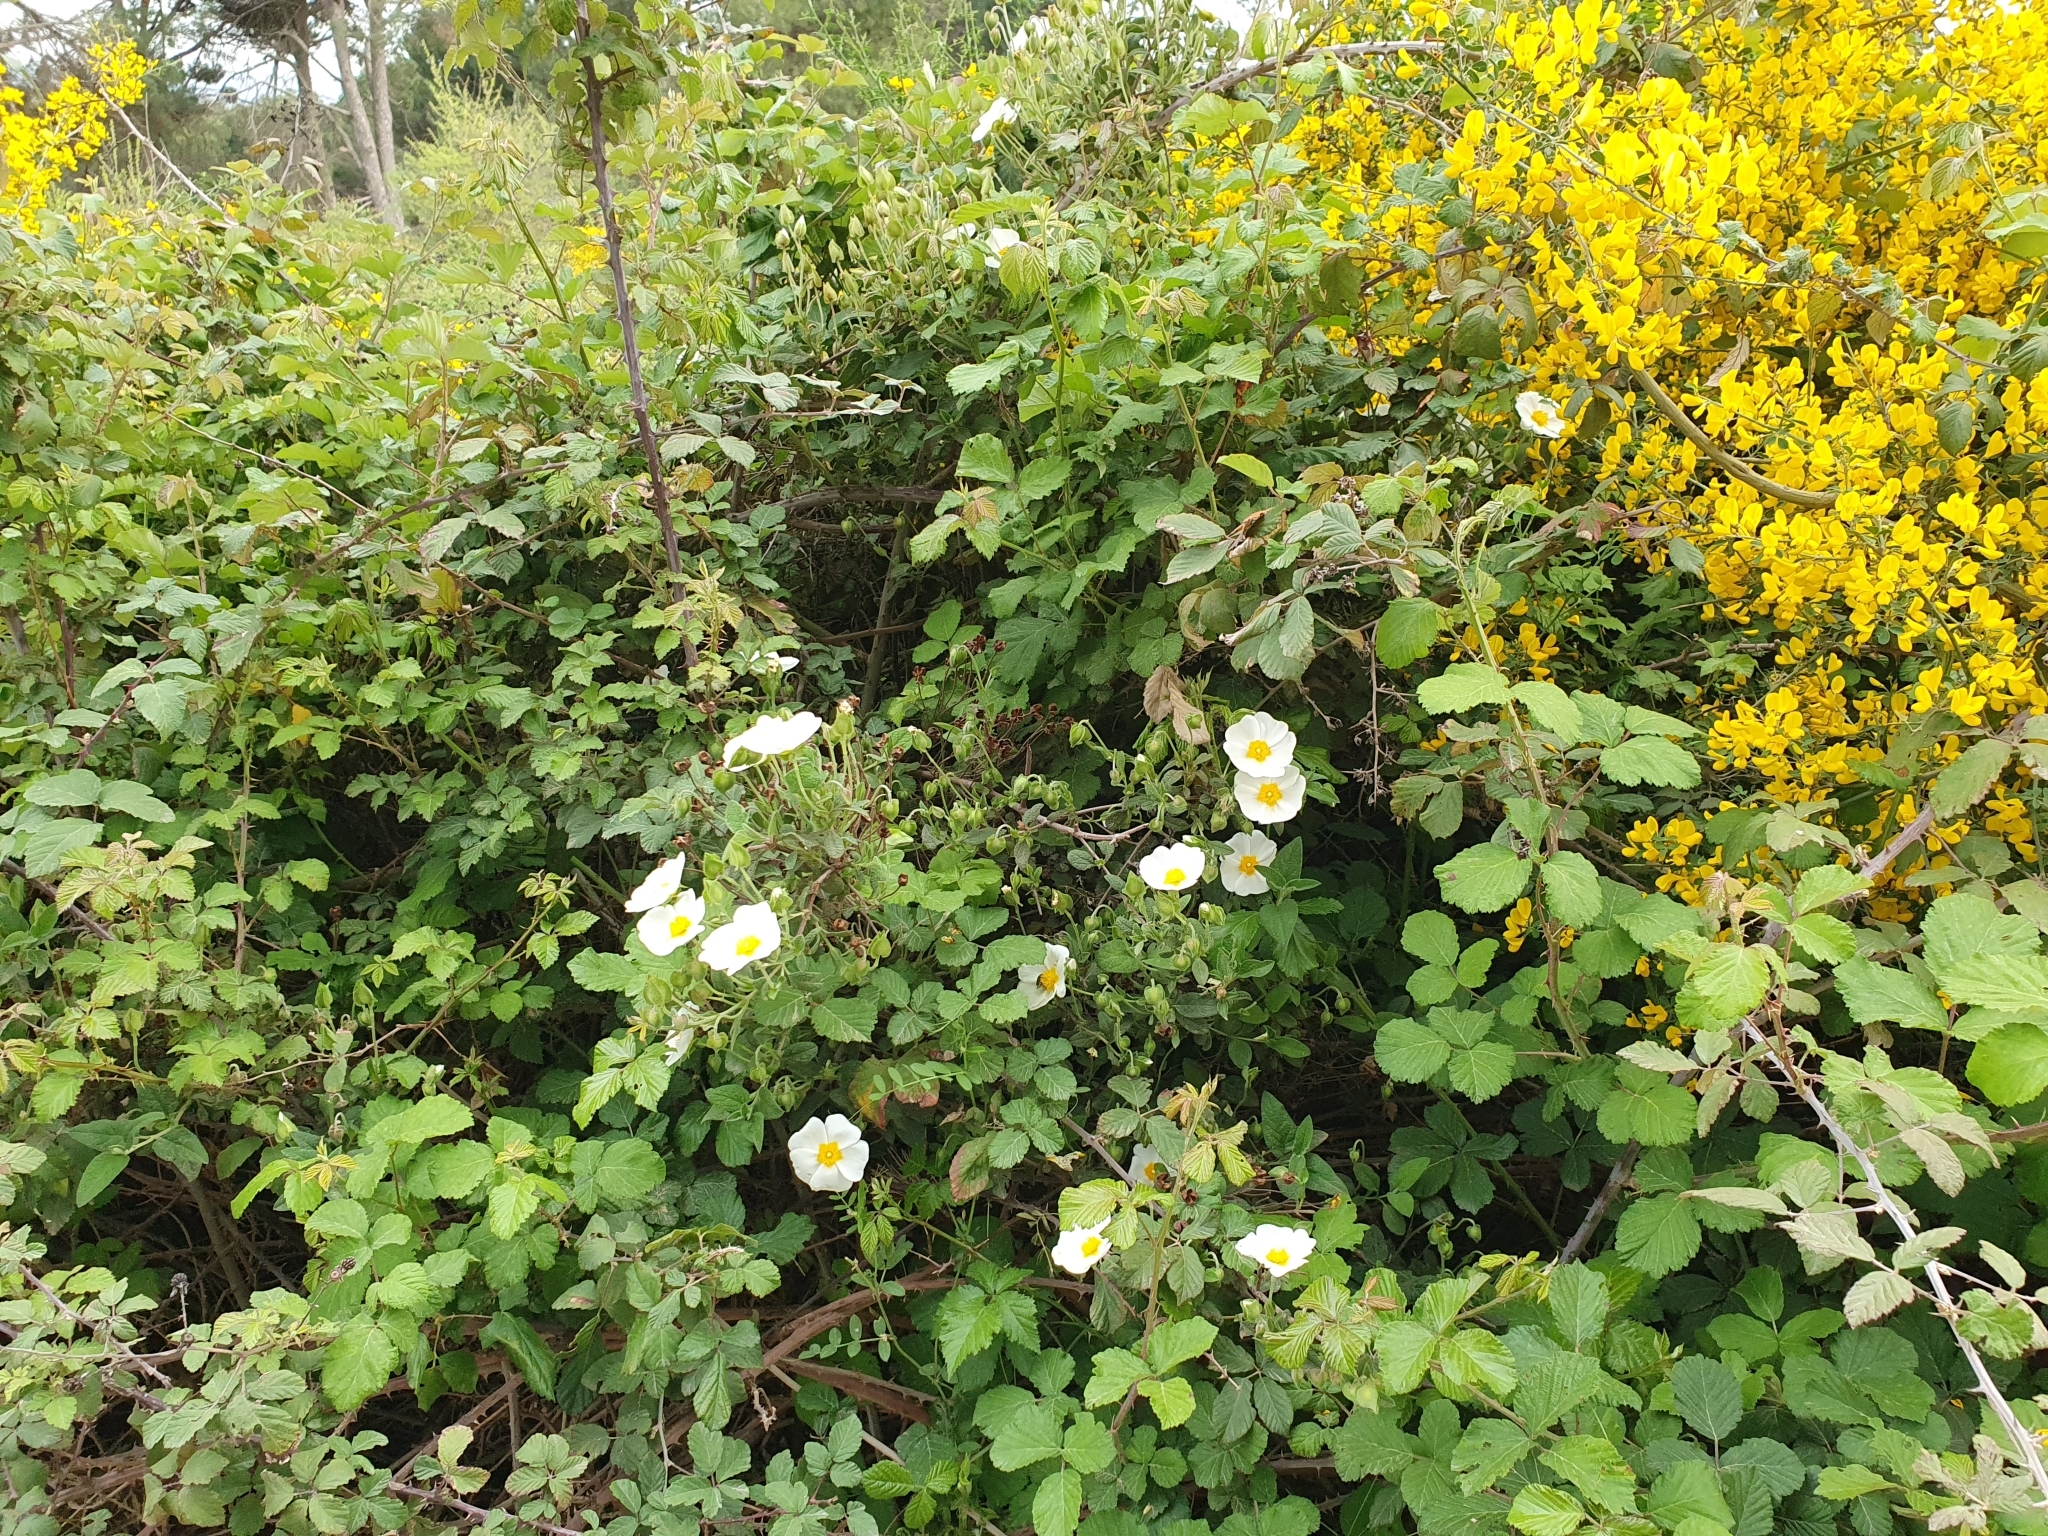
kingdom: Plantae
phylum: Tracheophyta
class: Magnoliopsida
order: Malvales
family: Cistaceae
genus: Cistus
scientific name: Cistus salviifolius
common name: Salvia cistus
